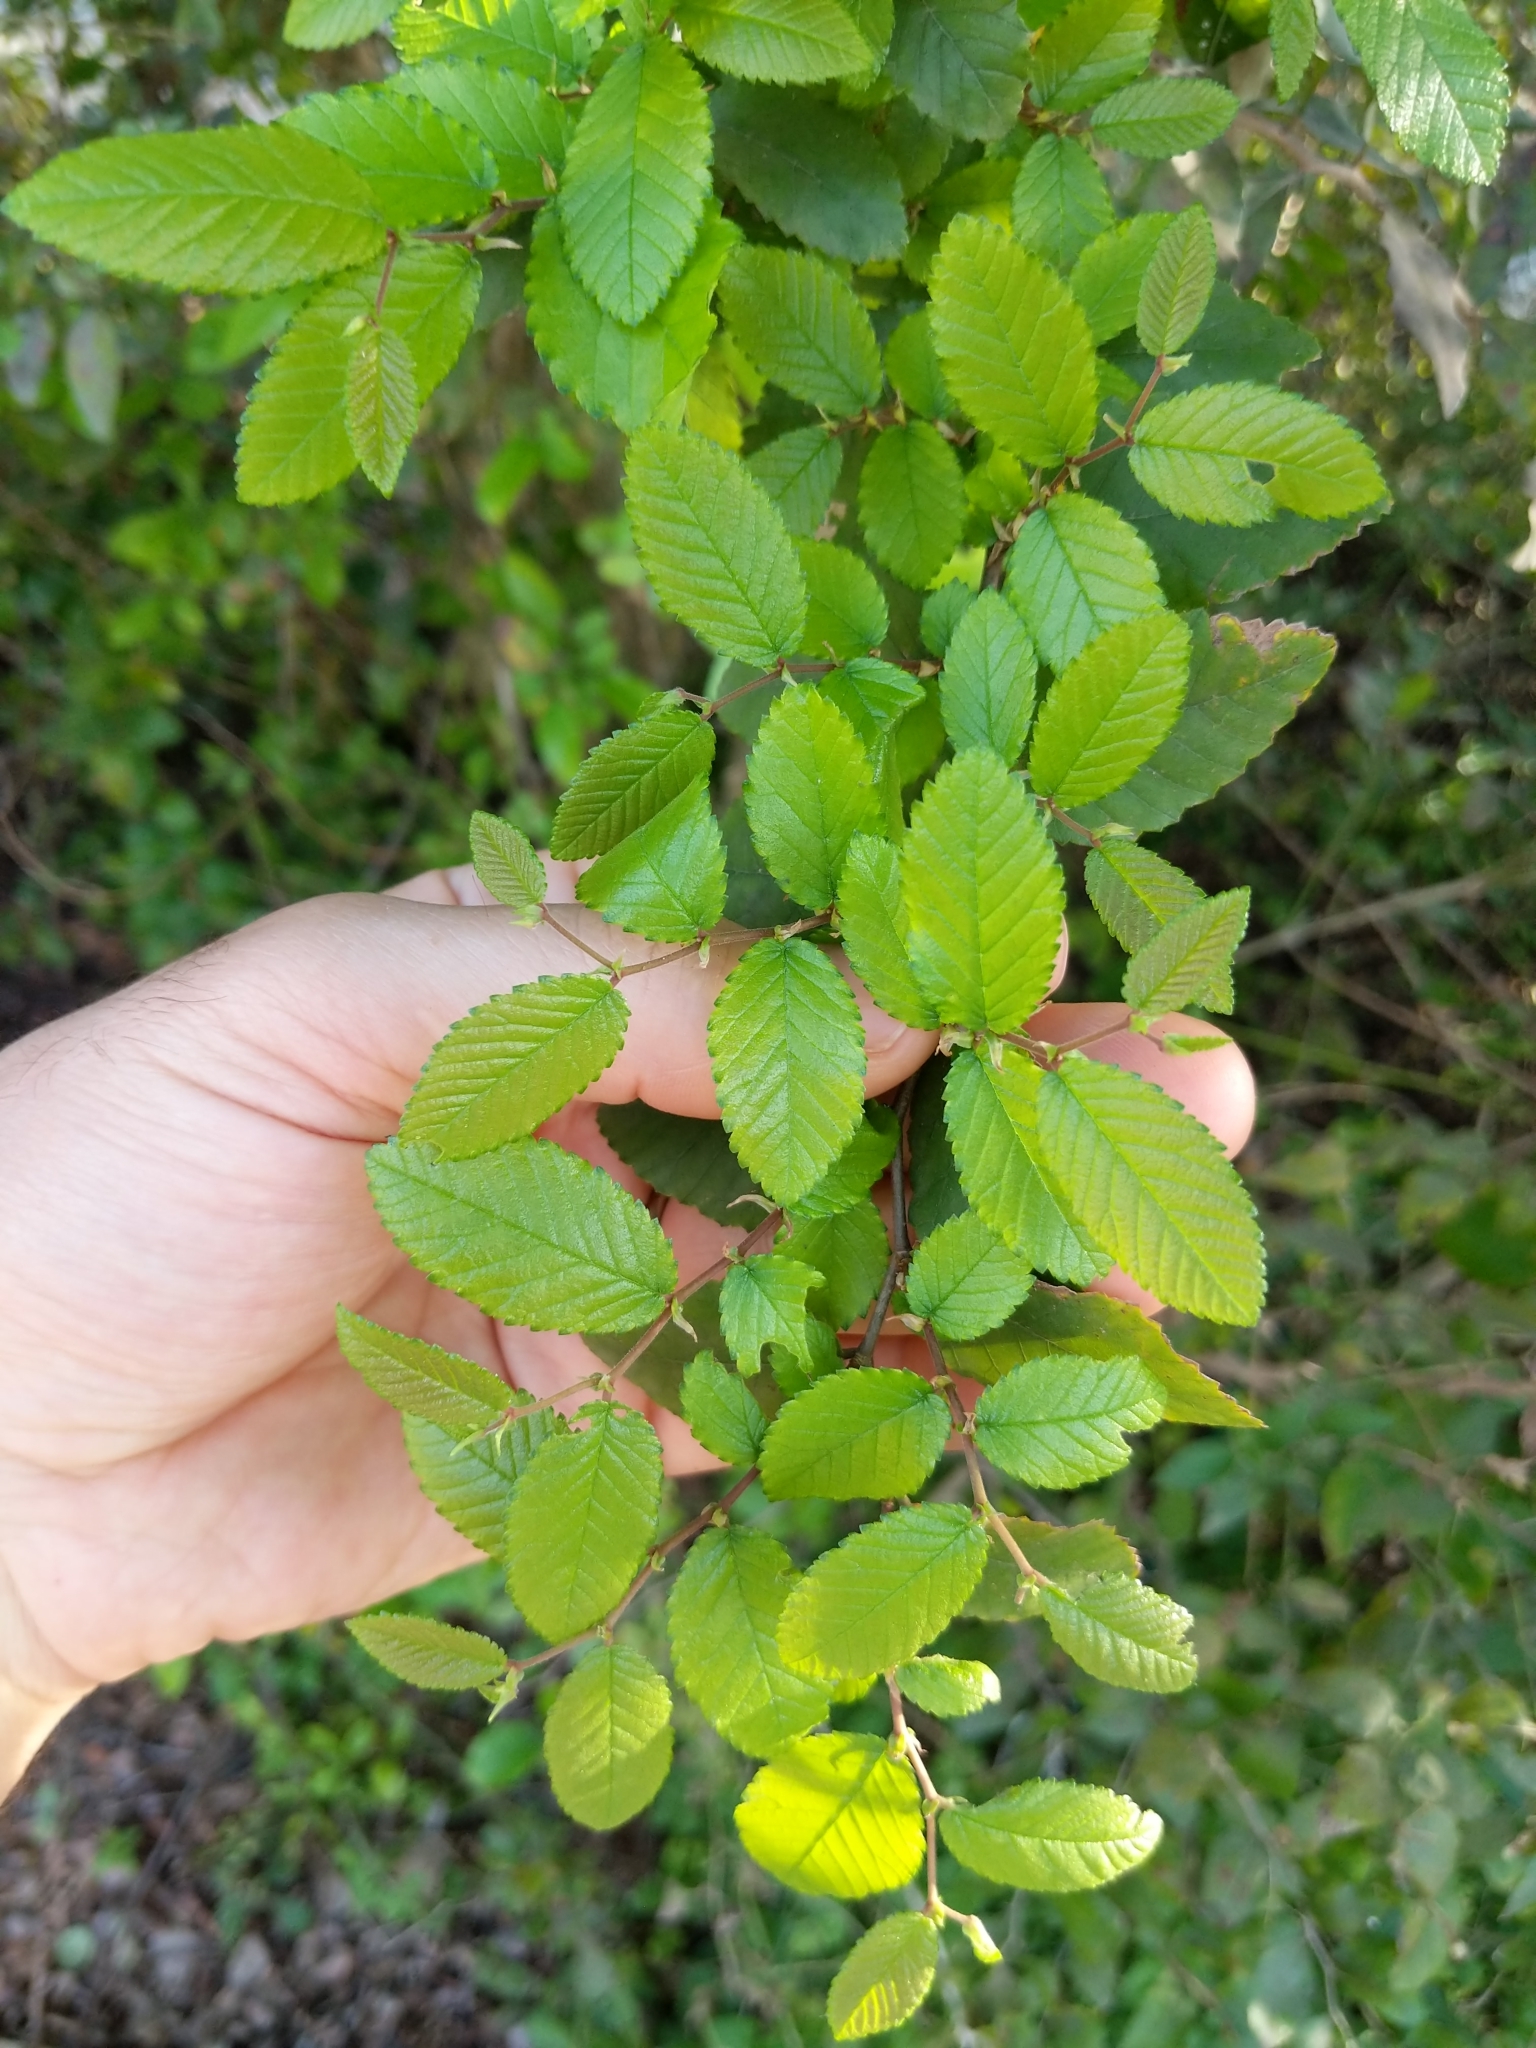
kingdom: Plantae
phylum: Tracheophyta
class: Magnoliopsida
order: Rosales
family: Ulmaceae
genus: Ulmus
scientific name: Ulmus crassifolia
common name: Basket elm
